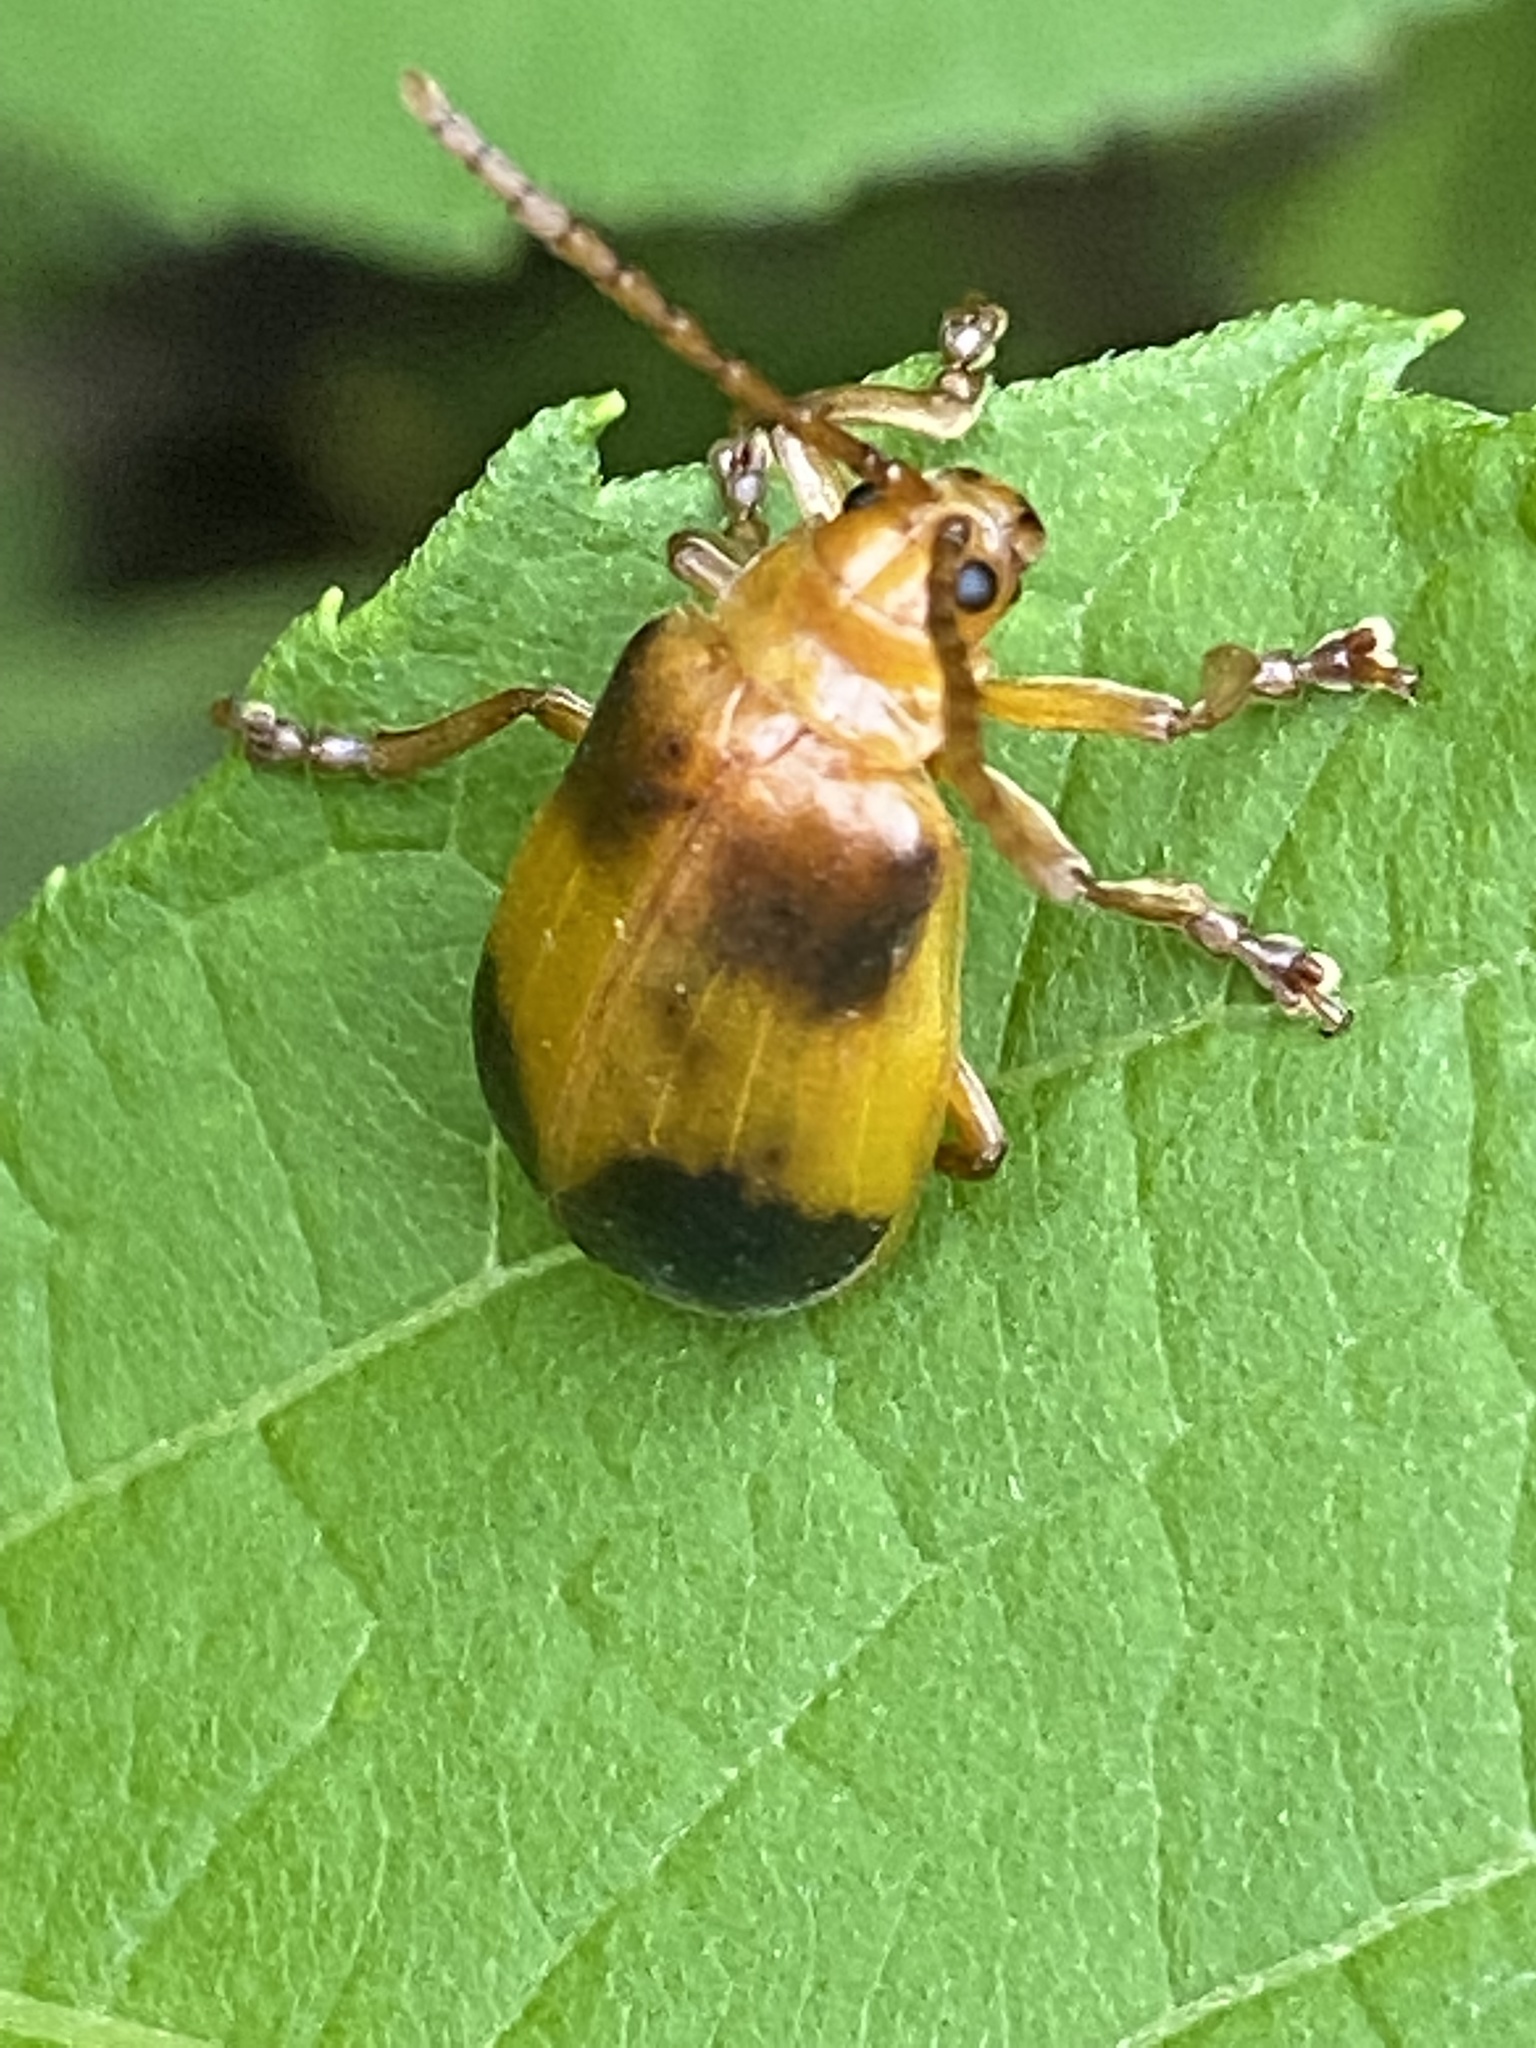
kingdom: Animalia
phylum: Arthropoda
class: Insecta
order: Coleoptera
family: Chrysomelidae
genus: Monocesta
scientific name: Monocesta coryli
